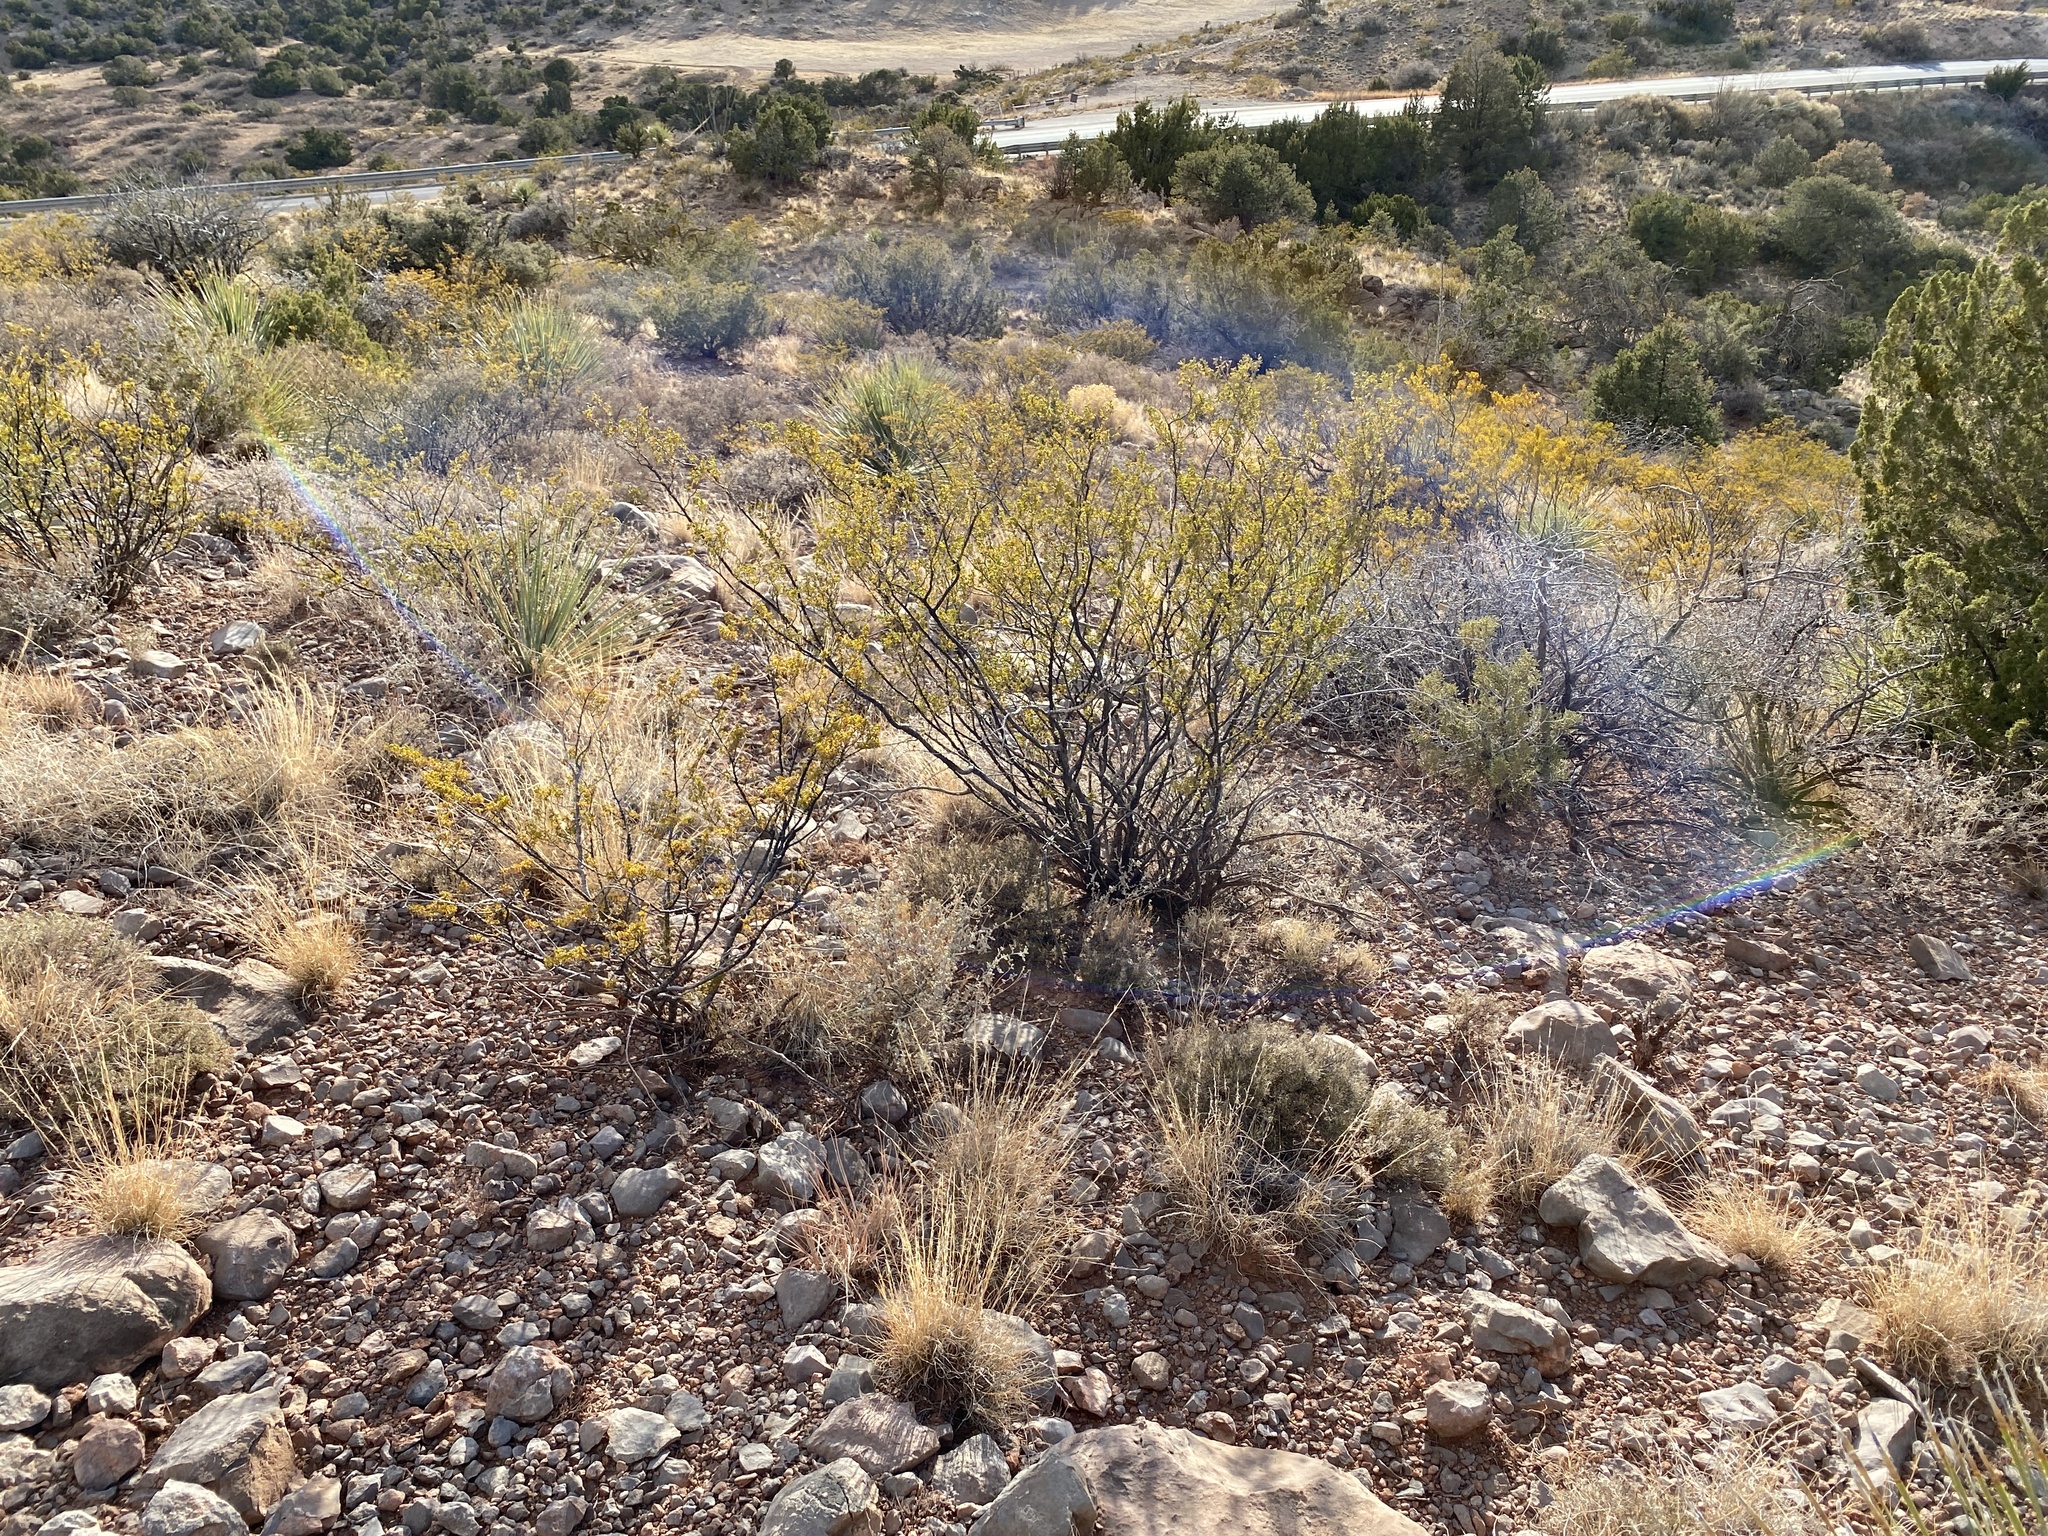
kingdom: Plantae
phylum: Tracheophyta
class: Magnoliopsida
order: Zygophyllales
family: Zygophyllaceae
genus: Larrea
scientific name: Larrea tridentata
